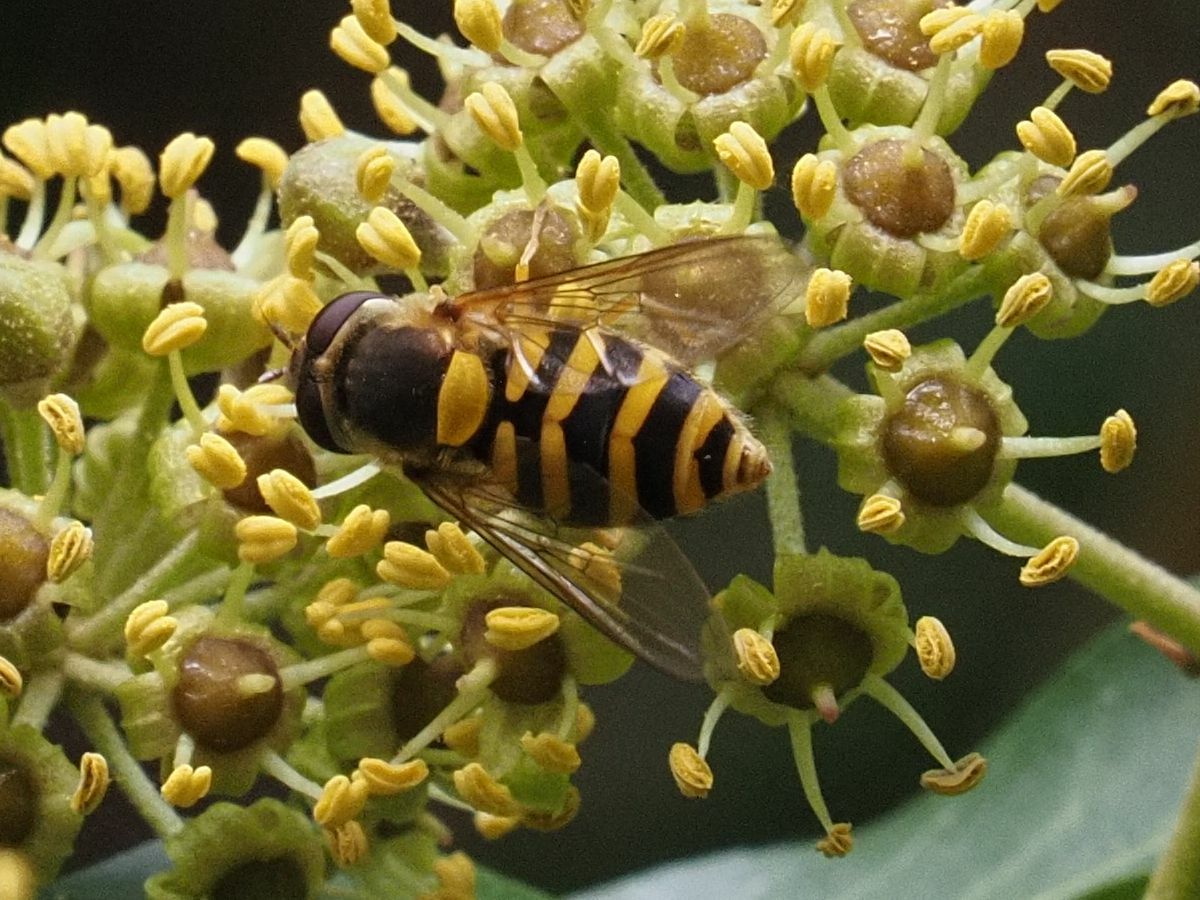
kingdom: Animalia
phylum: Arthropoda
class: Insecta
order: Diptera
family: Syrphidae
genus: Syrphus
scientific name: Syrphus
